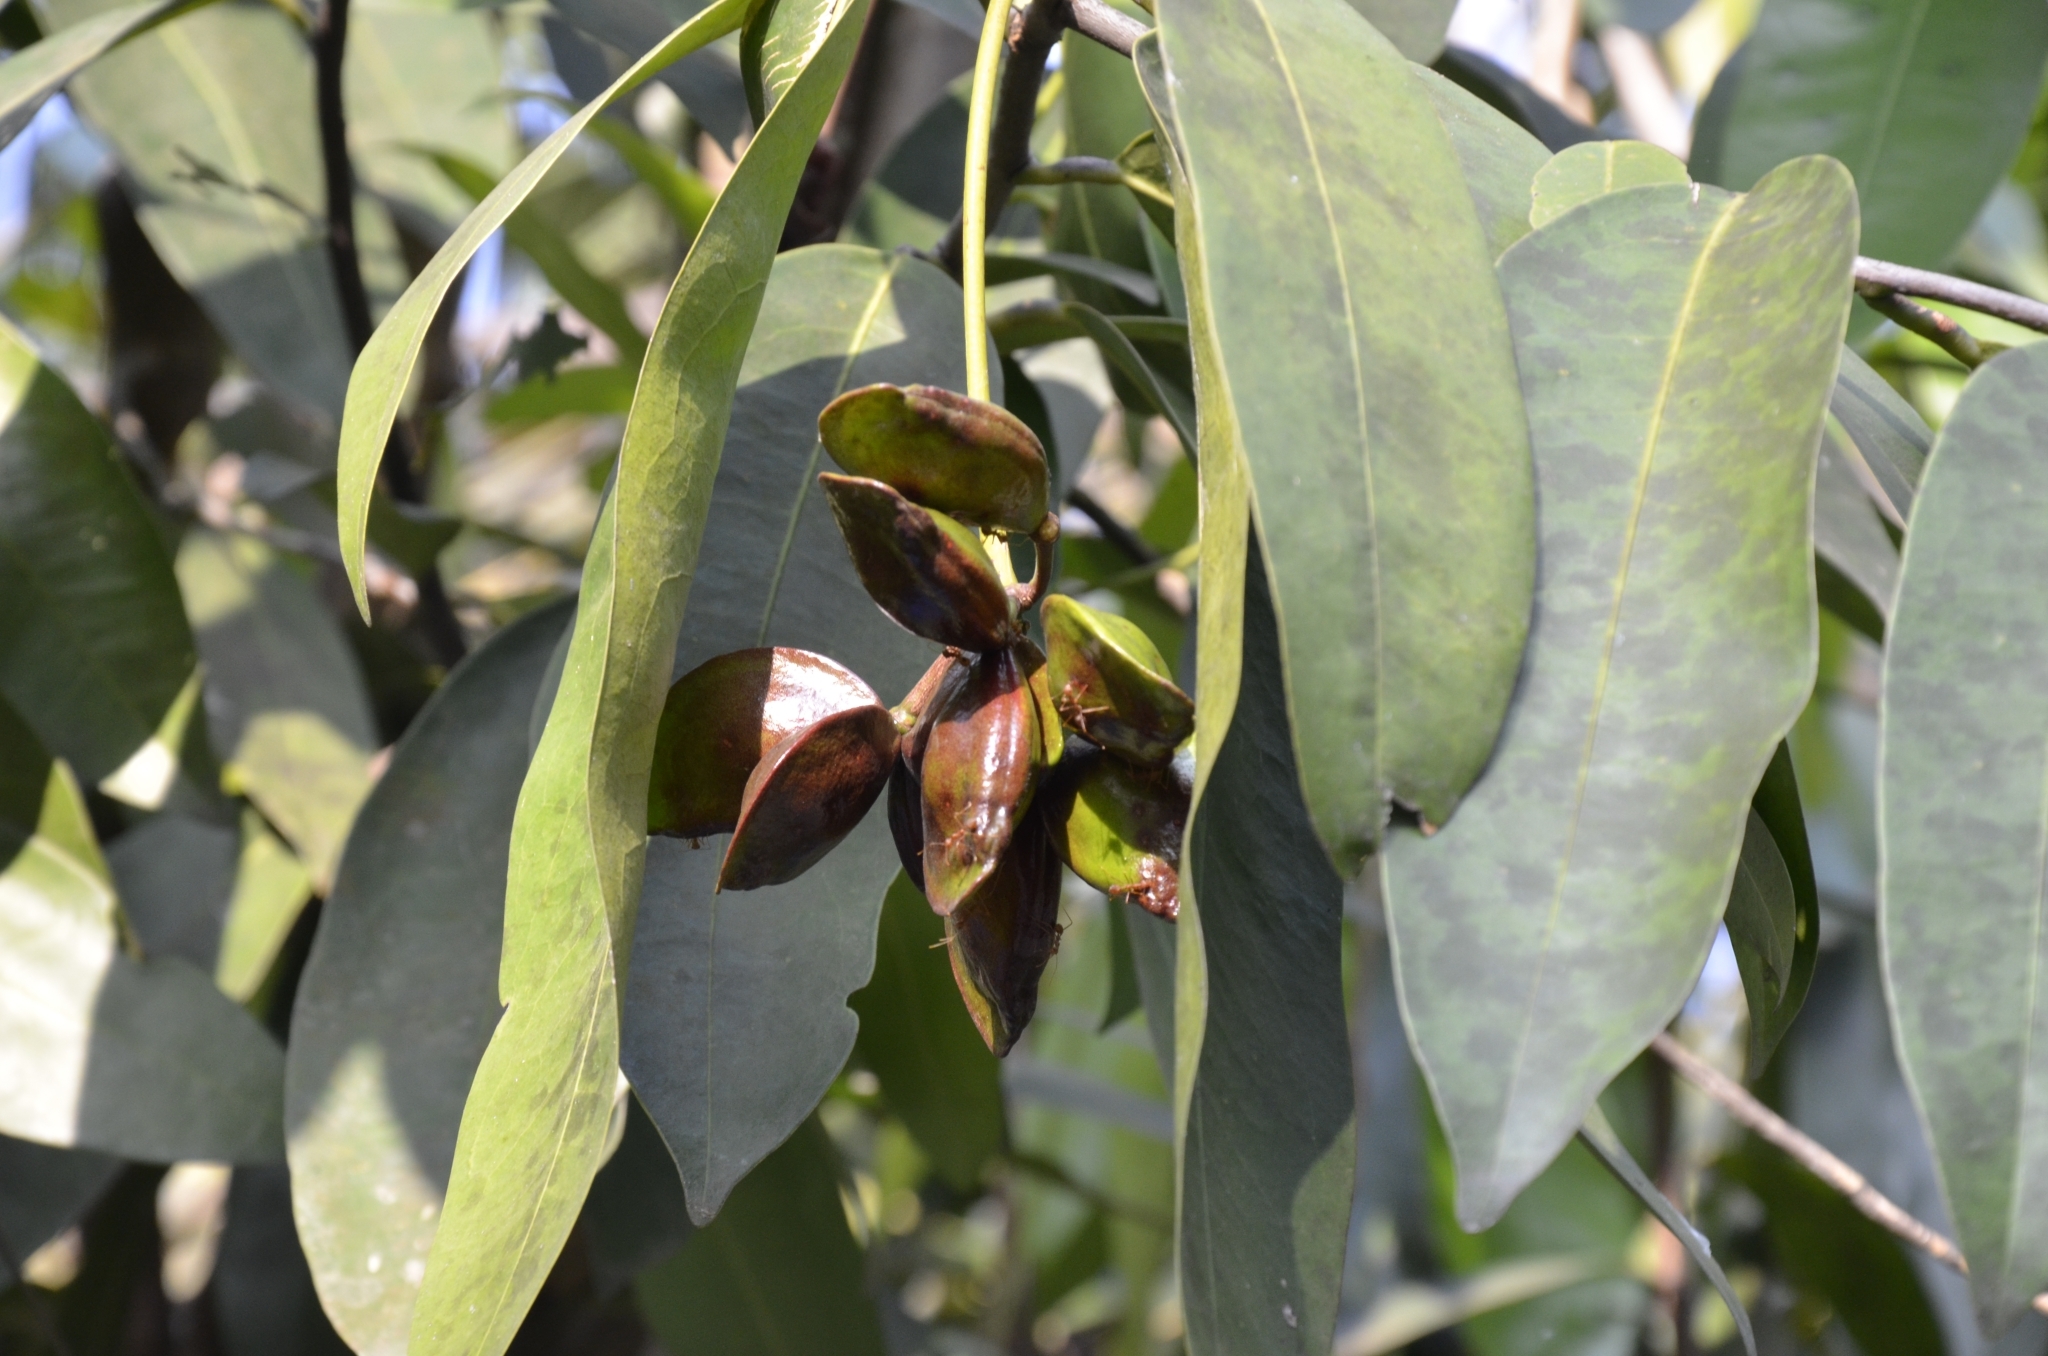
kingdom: Plantae
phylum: Tracheophyta
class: Magnoliopsida
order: Sapindales
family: Simaroubaceae
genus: Samadera
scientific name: Samadera indica
